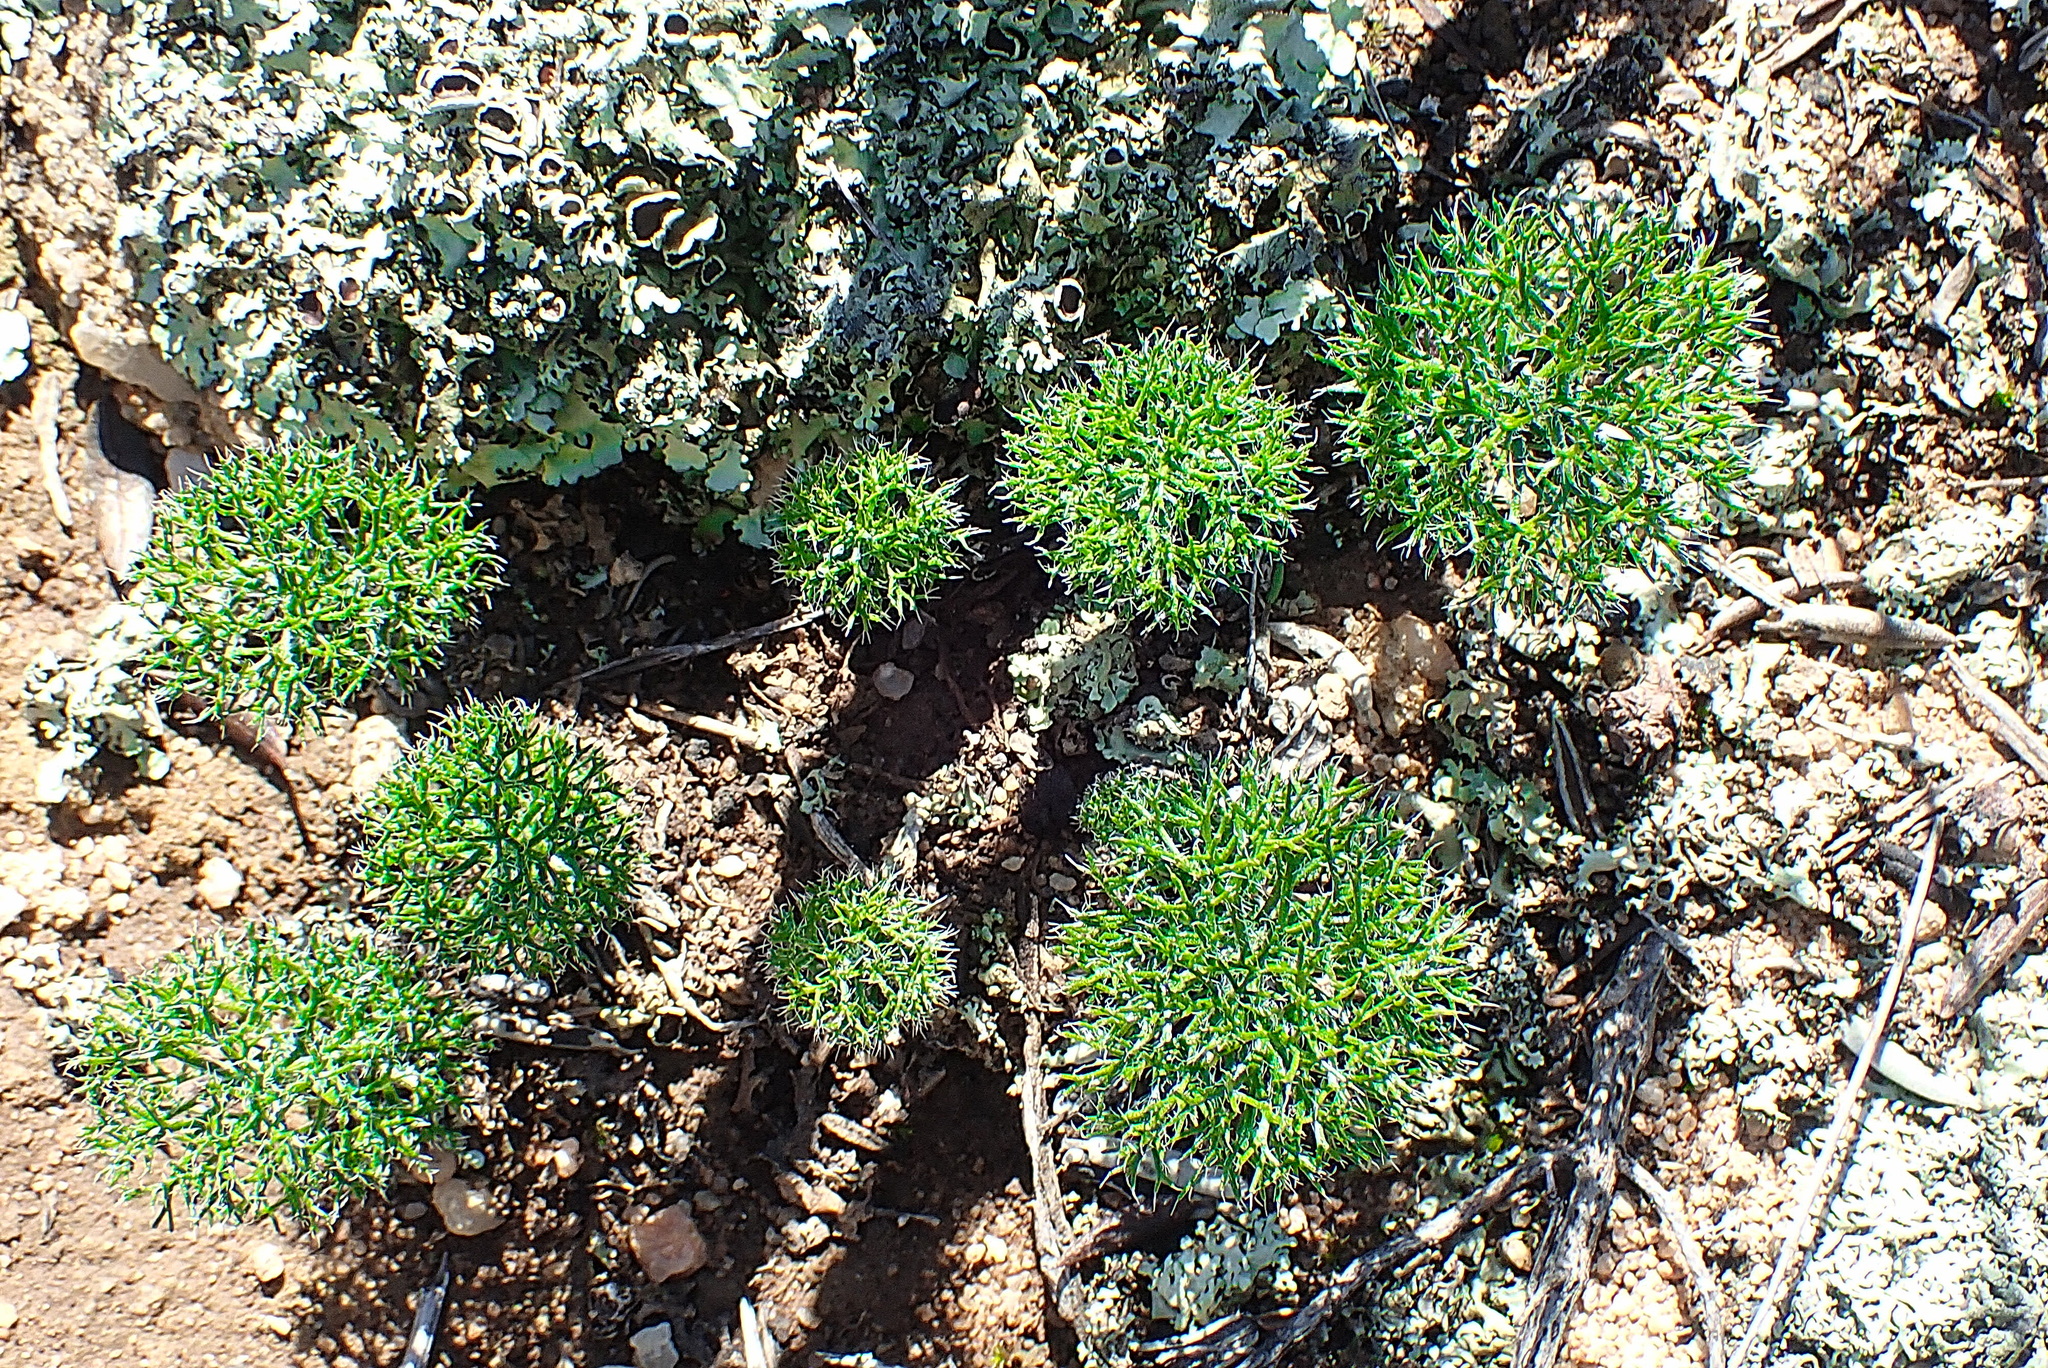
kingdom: Plantae
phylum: Tracheophyta
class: Liliopsida
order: Asparagales
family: Asparagaceae
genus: Eriospermum
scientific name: Eriospermum paradoxum
